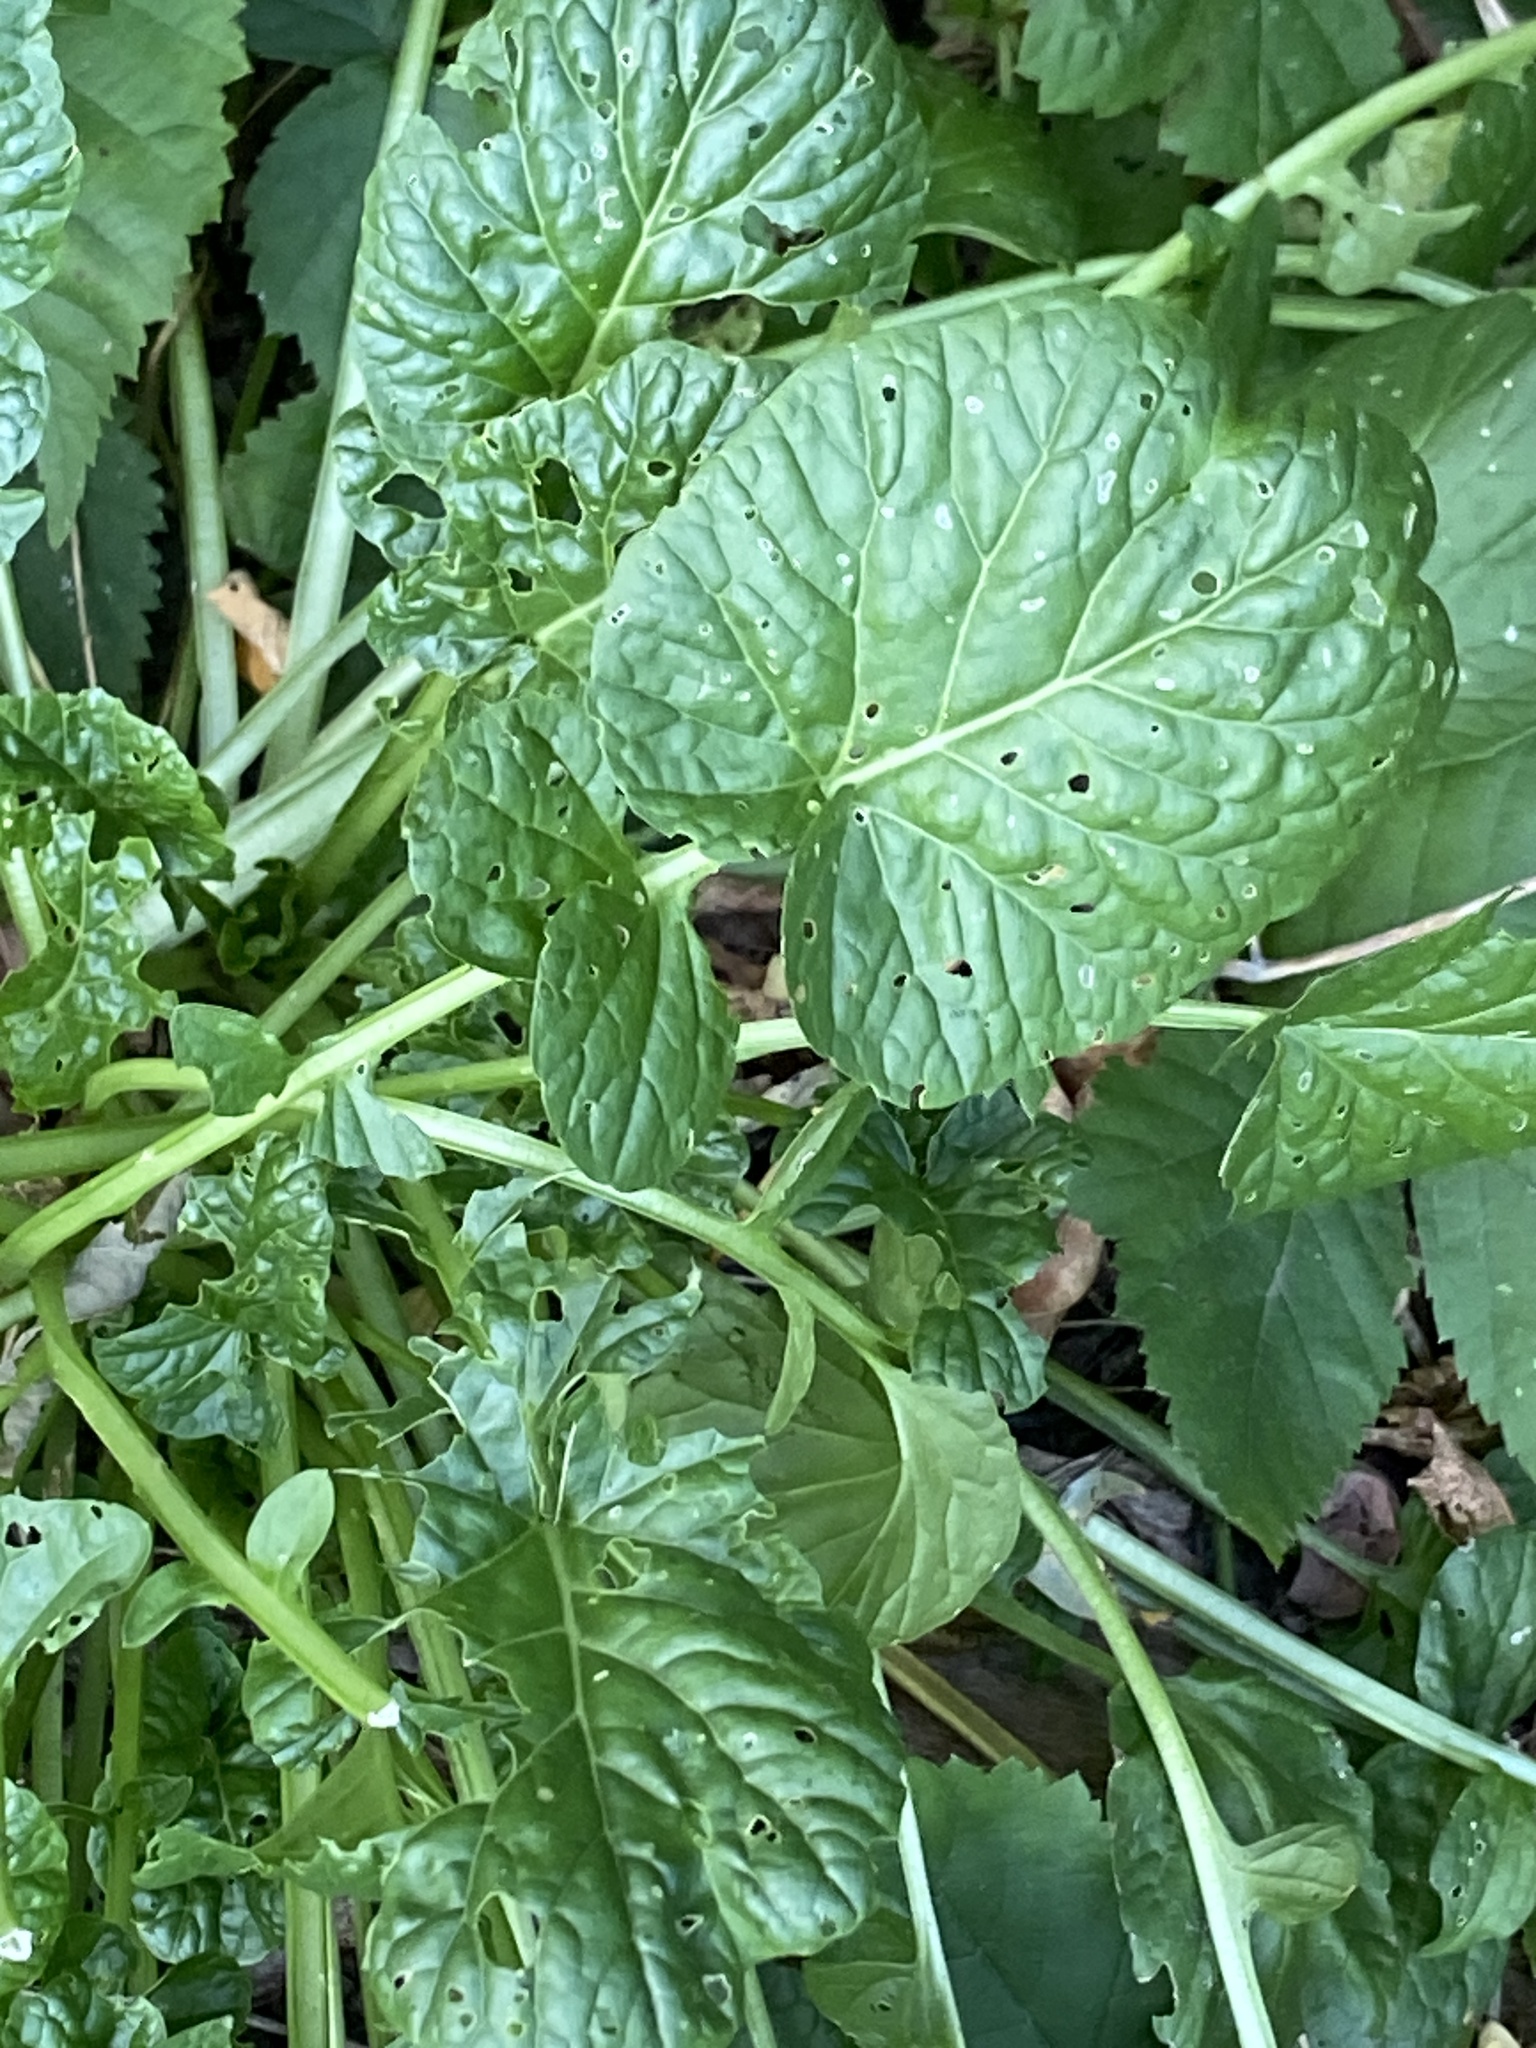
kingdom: Plantae
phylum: Tracheophyta
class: Magnoliopsida
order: Brassicales
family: Brassicaceae
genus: Barbarea
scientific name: Barbarea vulgaris
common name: Cressy-greens
